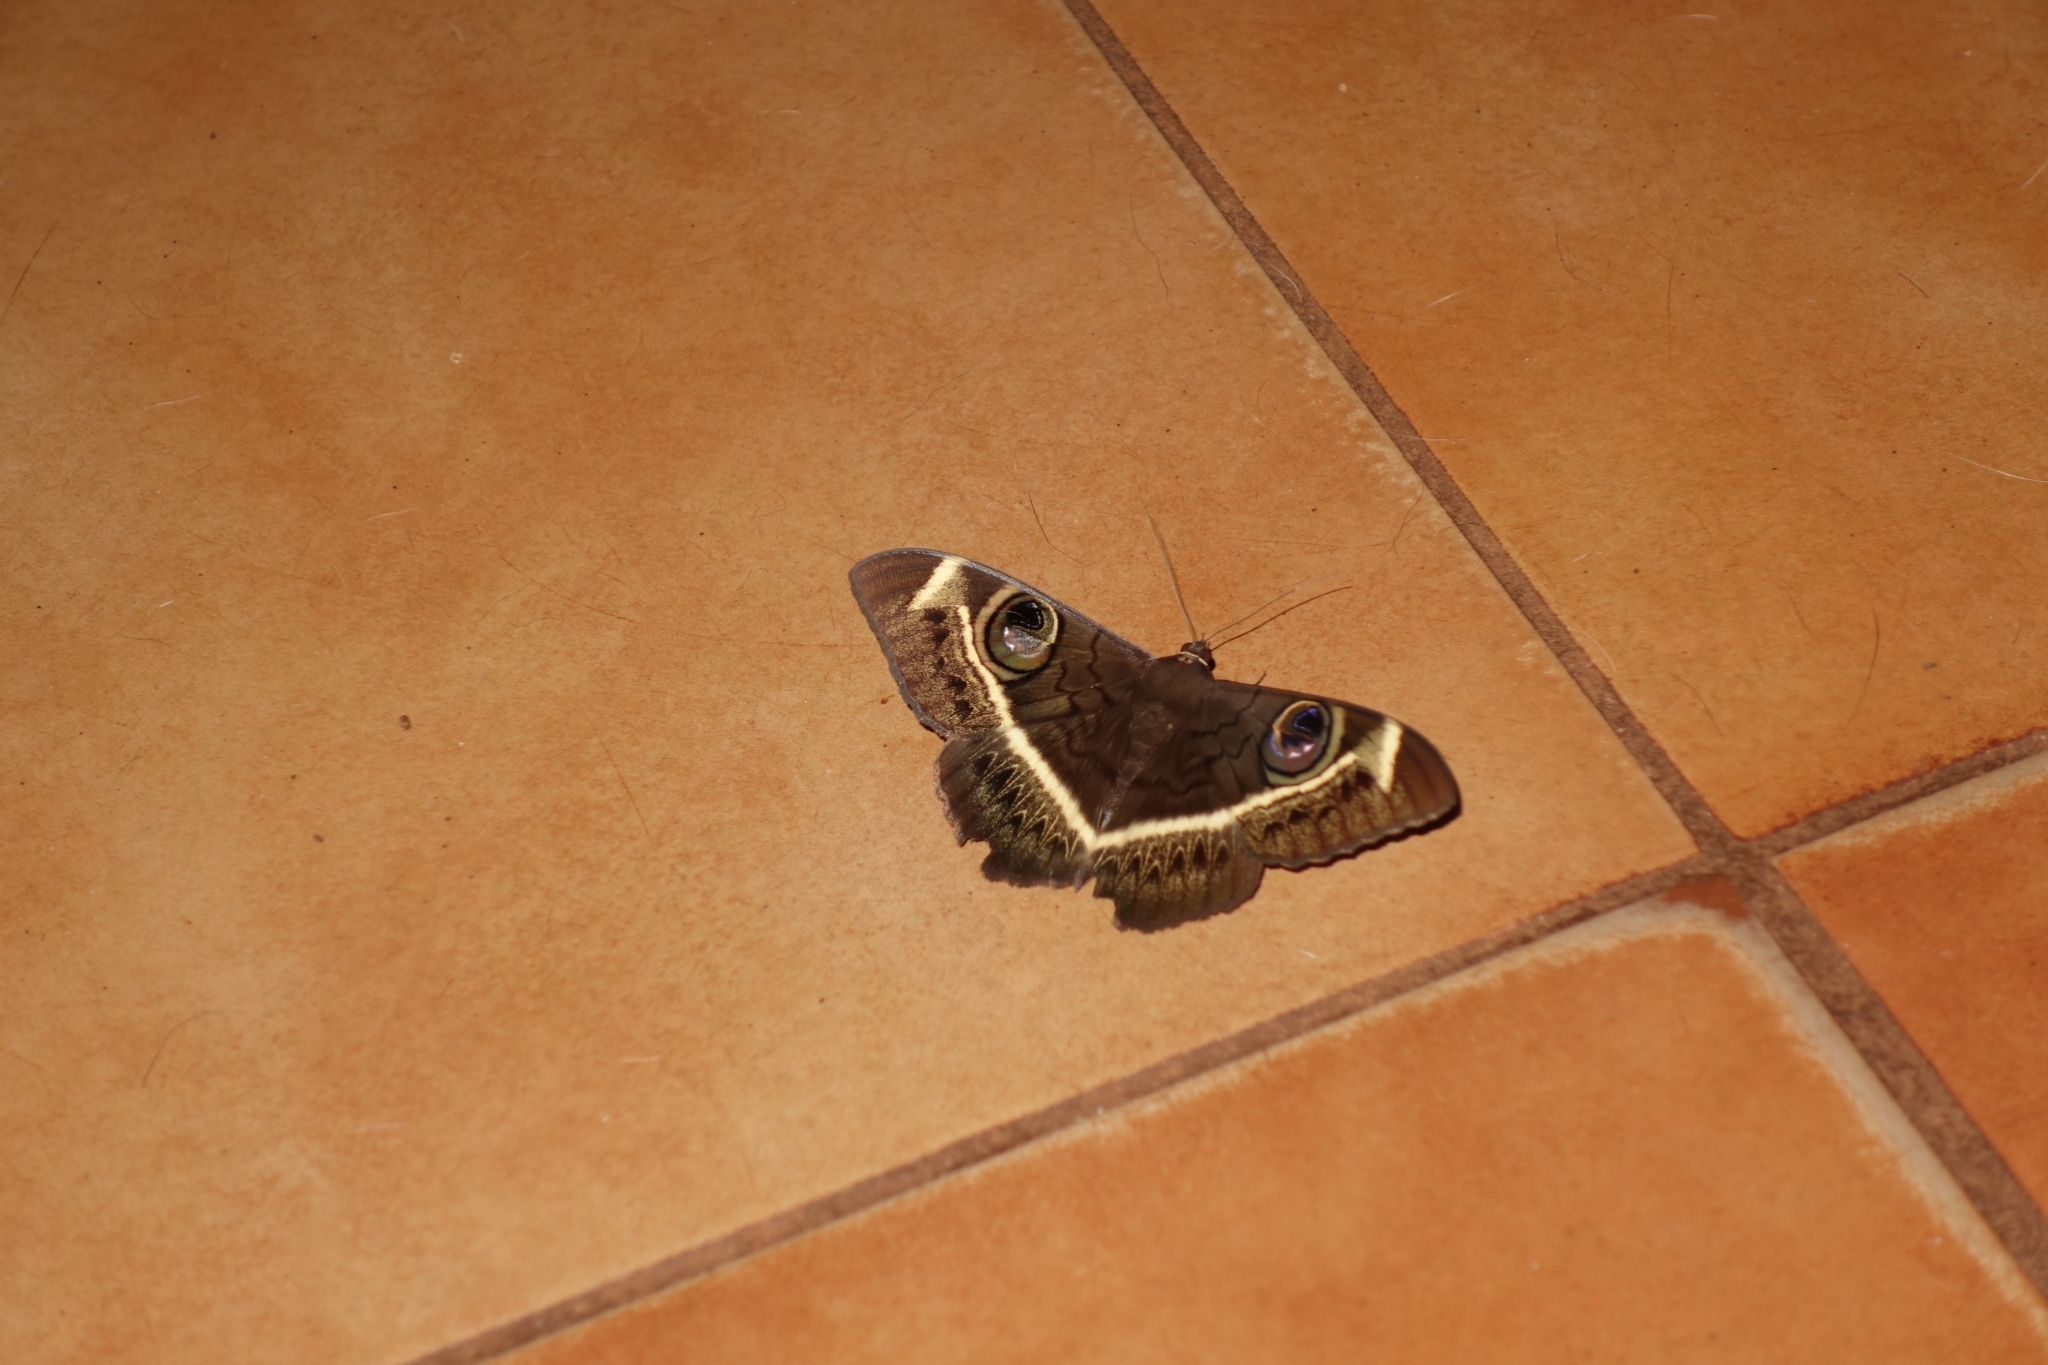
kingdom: Animalia
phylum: Arthropoda
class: Insecta
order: Lepidoptera
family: Erebidae
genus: Cyligramma
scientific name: Cyligramma latona
